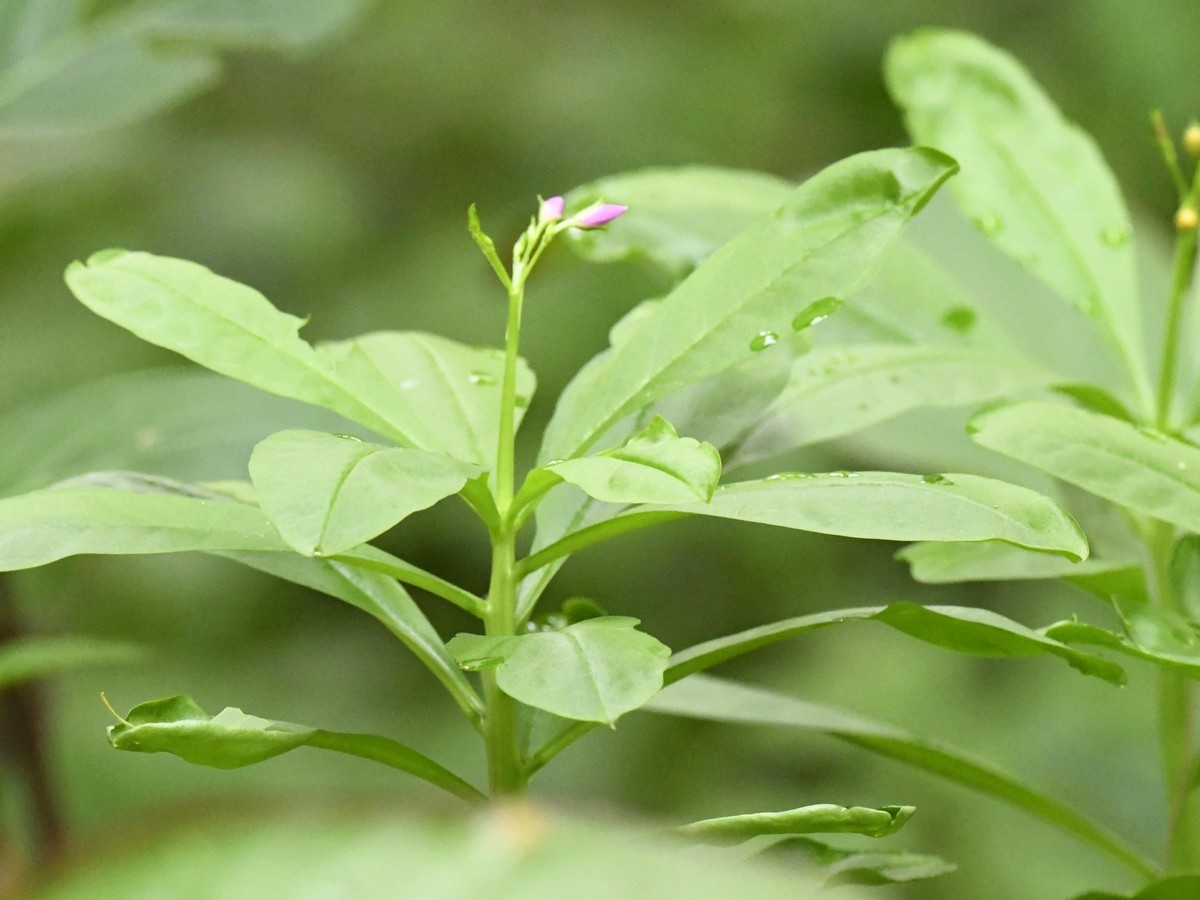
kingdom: Plantae
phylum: Tracheophyta
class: Magnoliopsida
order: Caryophyllales
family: Talinaceae
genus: Talinum
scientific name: Talinum fruticosum
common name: Verdolaga-francesa
